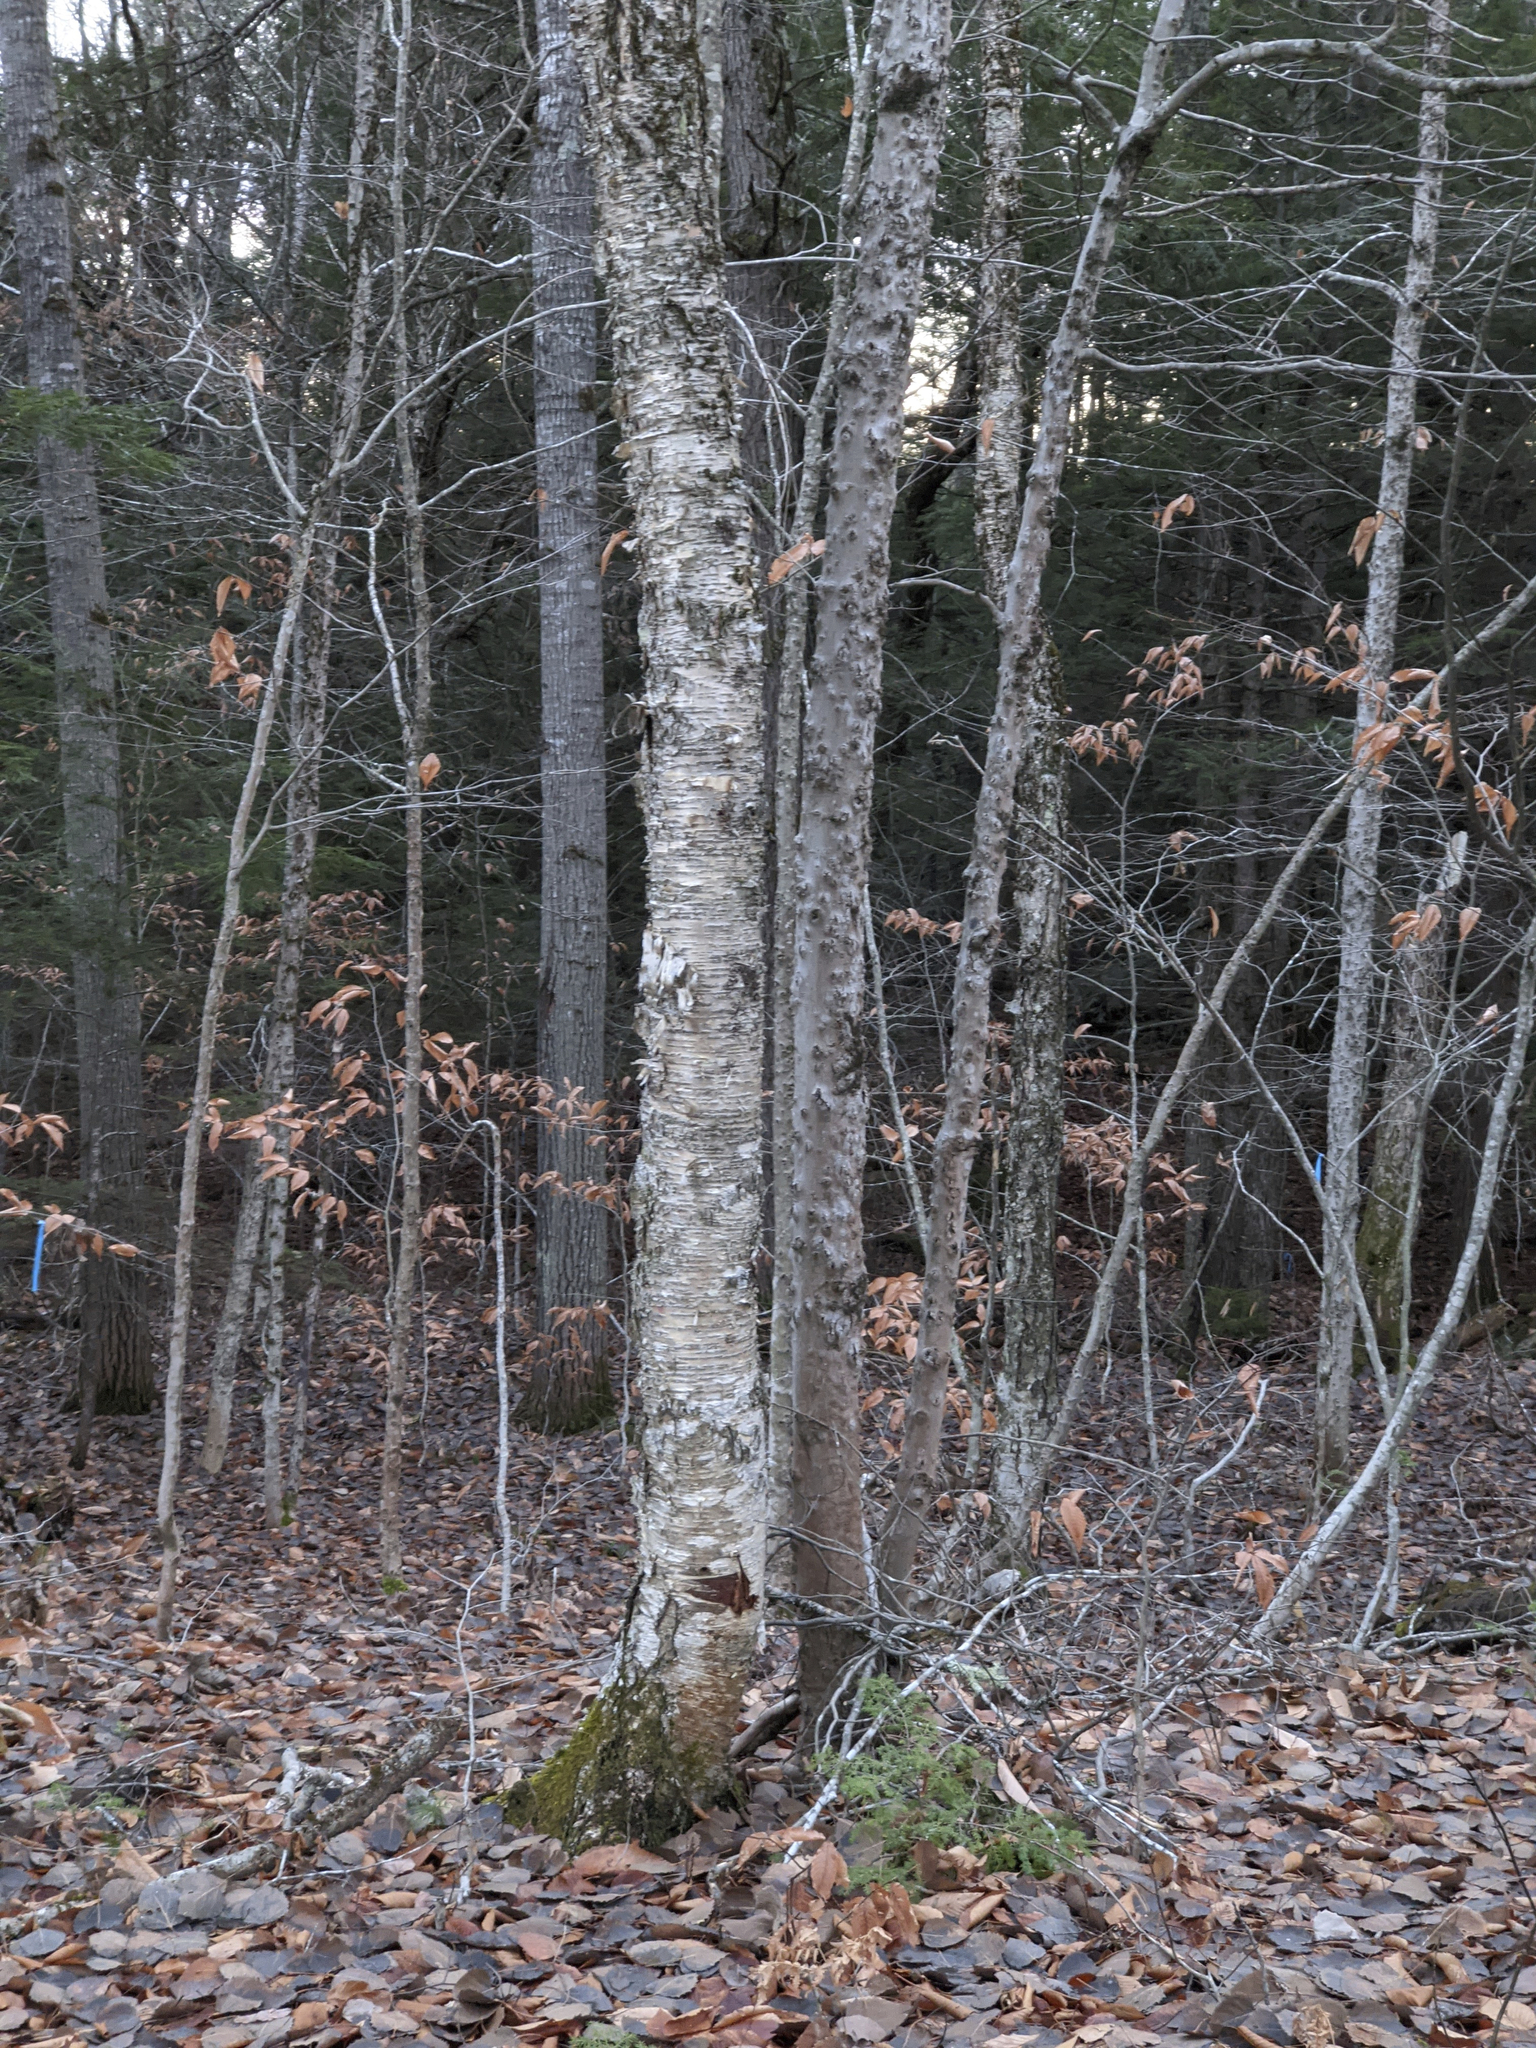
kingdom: Plantae
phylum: Tracheophyta
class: Magnoliopsida
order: Fagales
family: Betulaceae
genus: Betula
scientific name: Betula alleghaniensis
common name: Yellow birch
